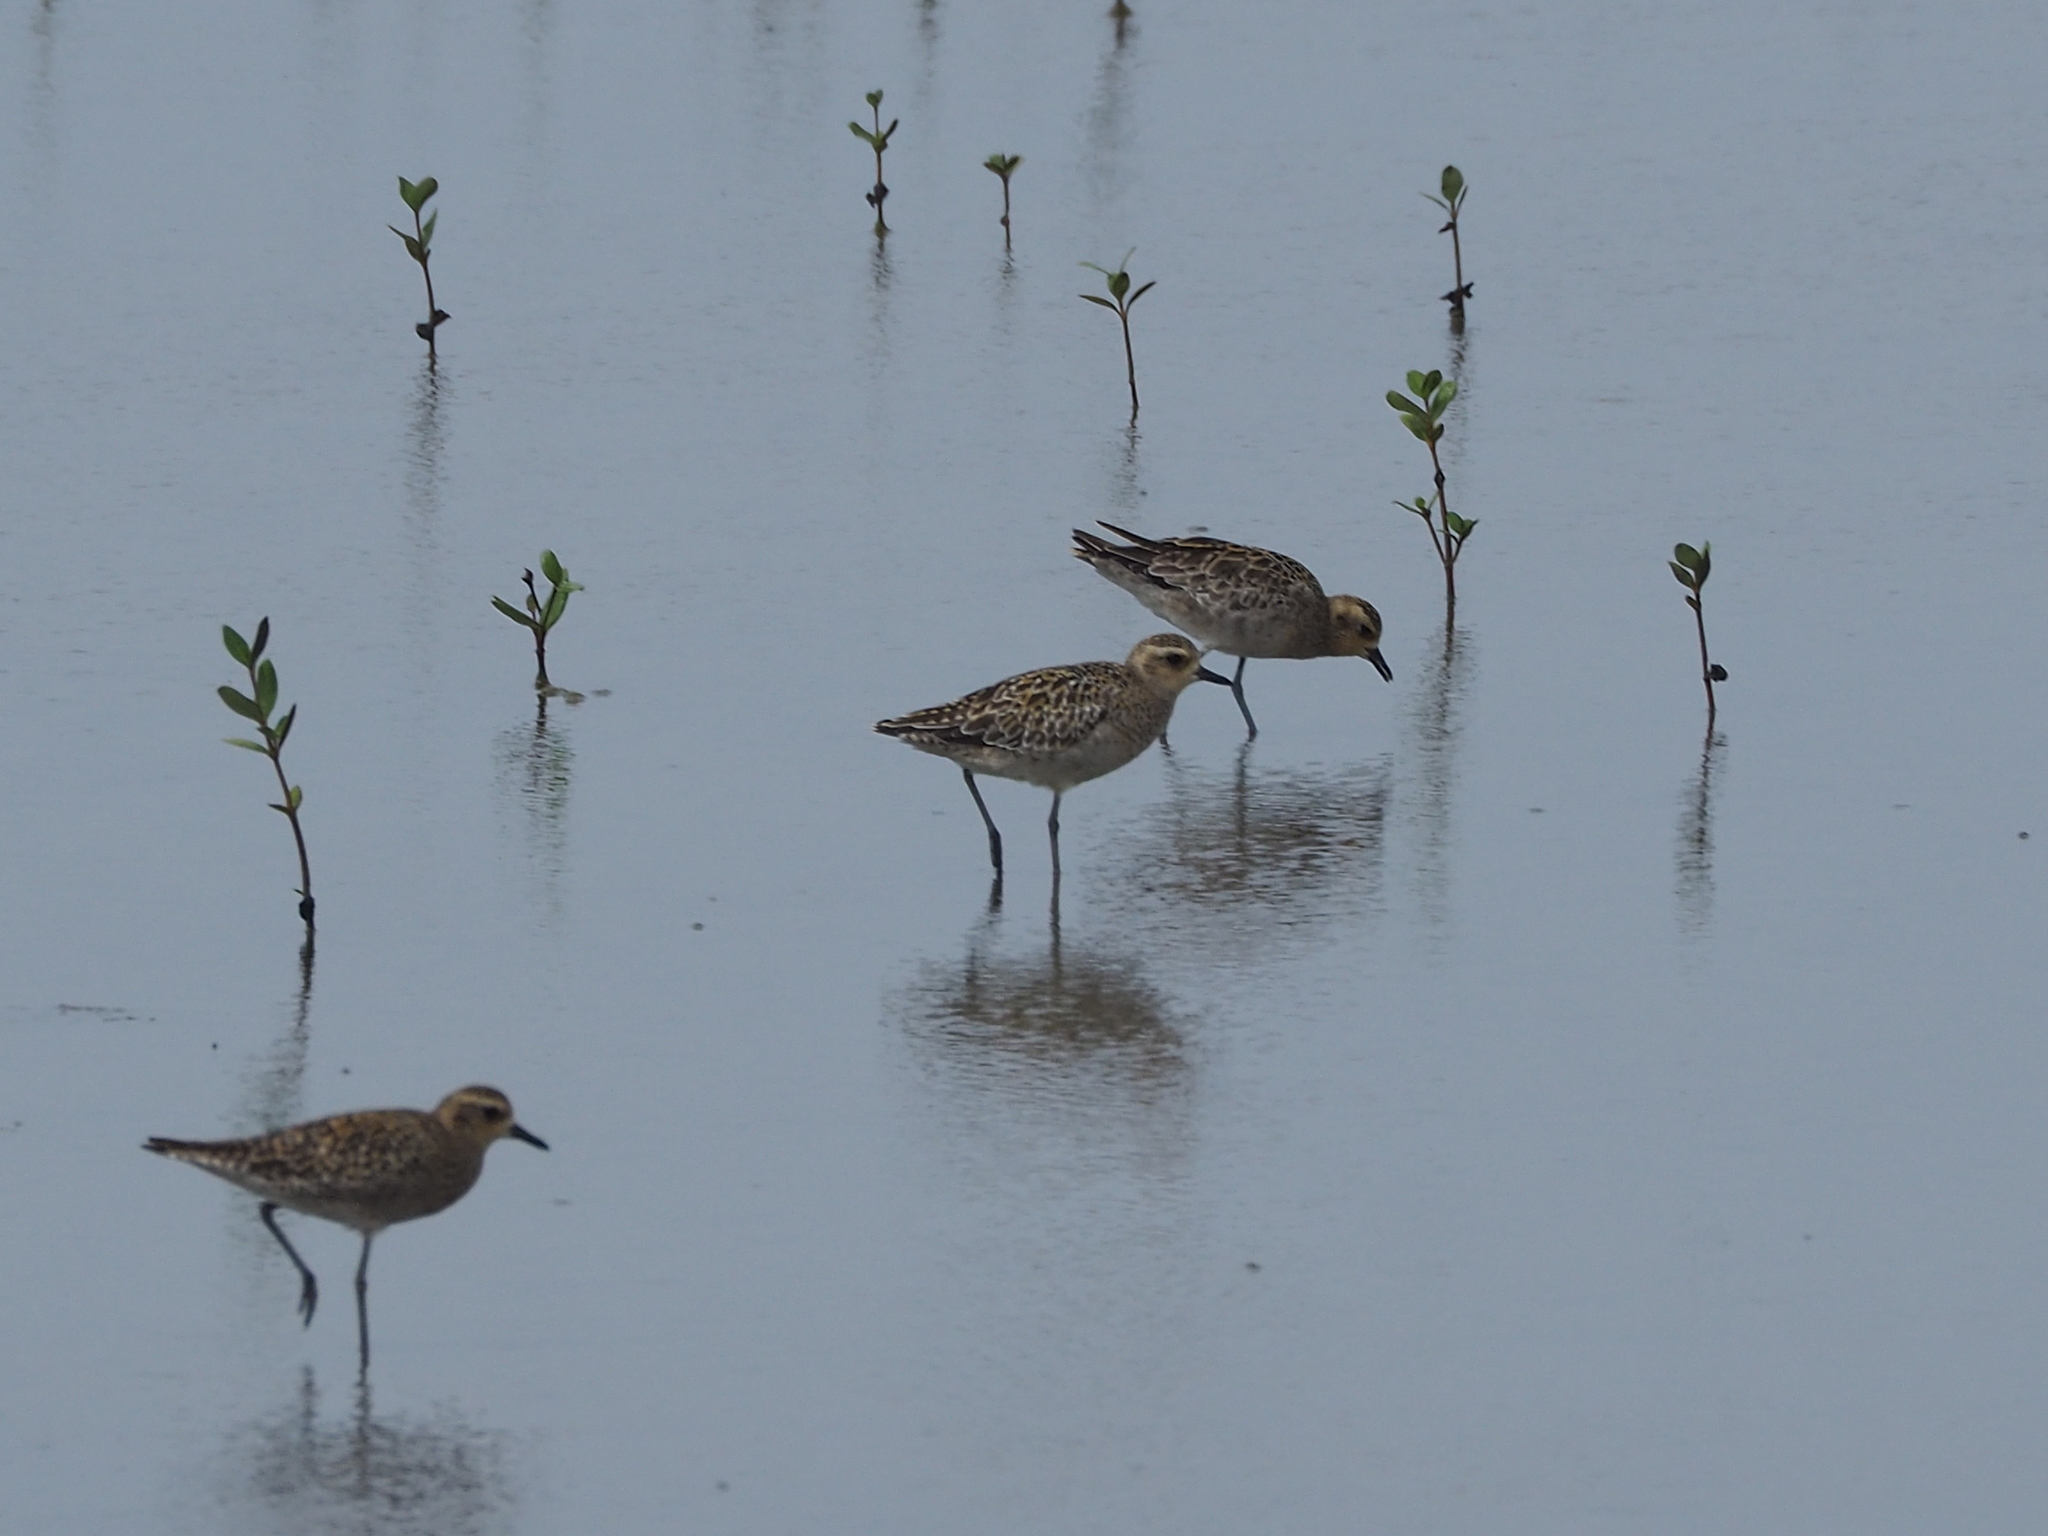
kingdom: Animalia
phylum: Chordata
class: Aves
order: Charadriiformes
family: Charadriidae
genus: Pluvialis
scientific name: Pluvialis fulva
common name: Pacific golden plover
